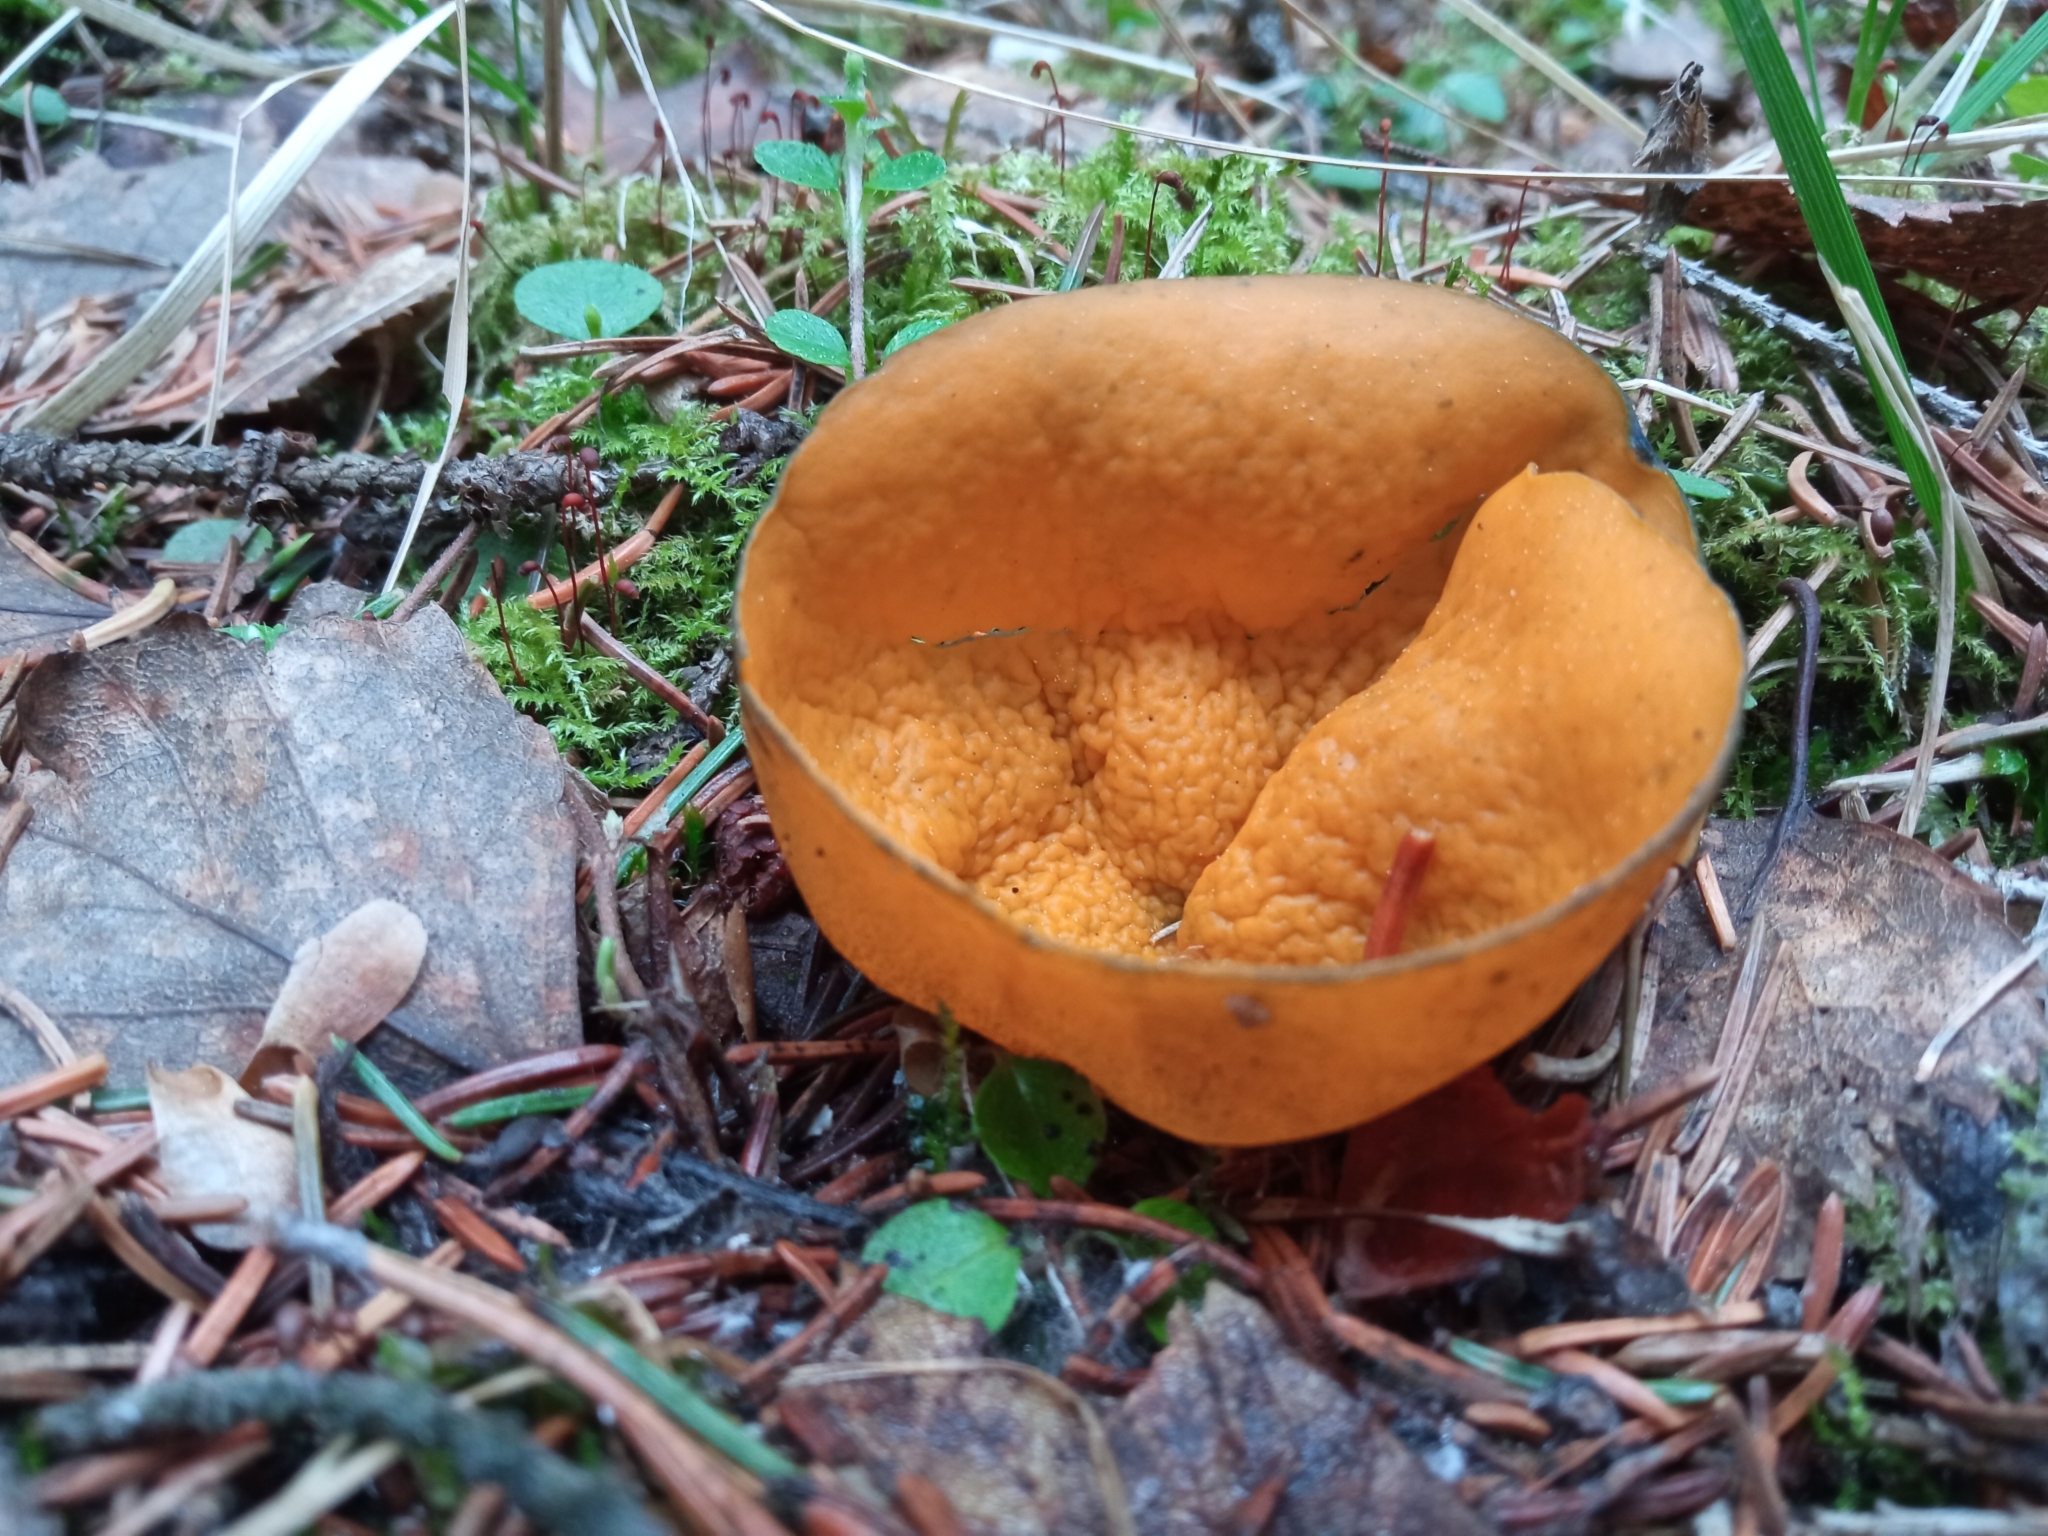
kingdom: Fungi
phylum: Ascomycota
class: Pezizomycetes
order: Pezizales
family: Caloscyphaceae
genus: Caloscypha
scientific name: Caloscypha fulgens
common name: Golden cup
